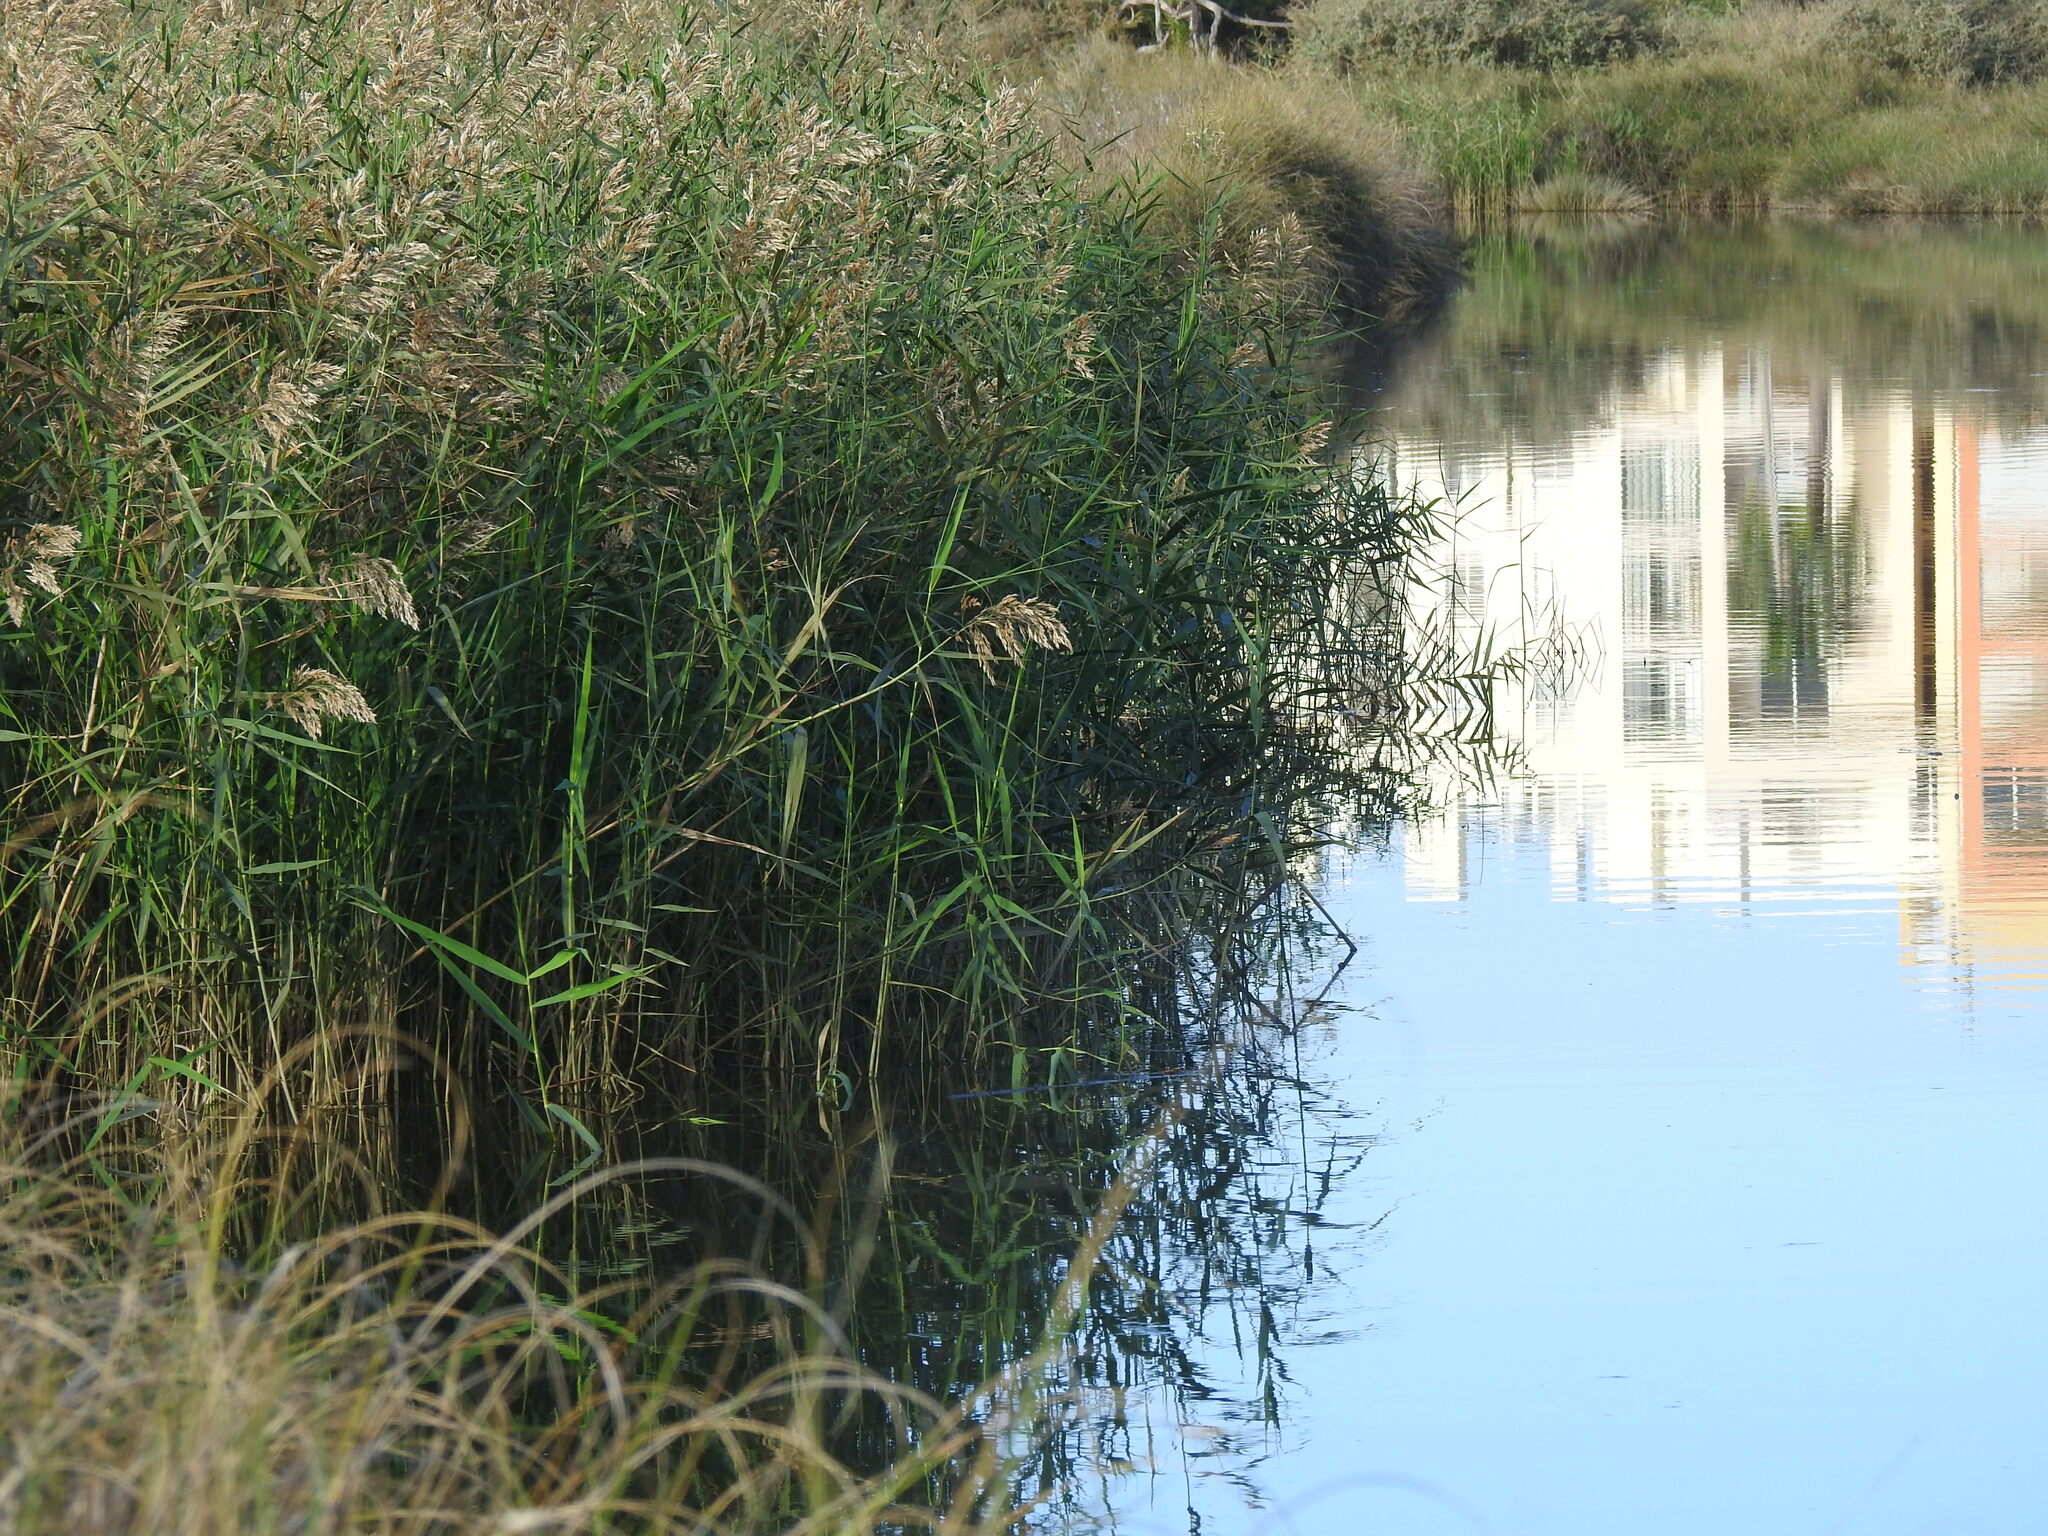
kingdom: Plantae
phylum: Tracheophyta
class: Liliopsida
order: Poales
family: Poaceae
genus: Phragmites
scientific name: Phragmites australis
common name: Common reed
